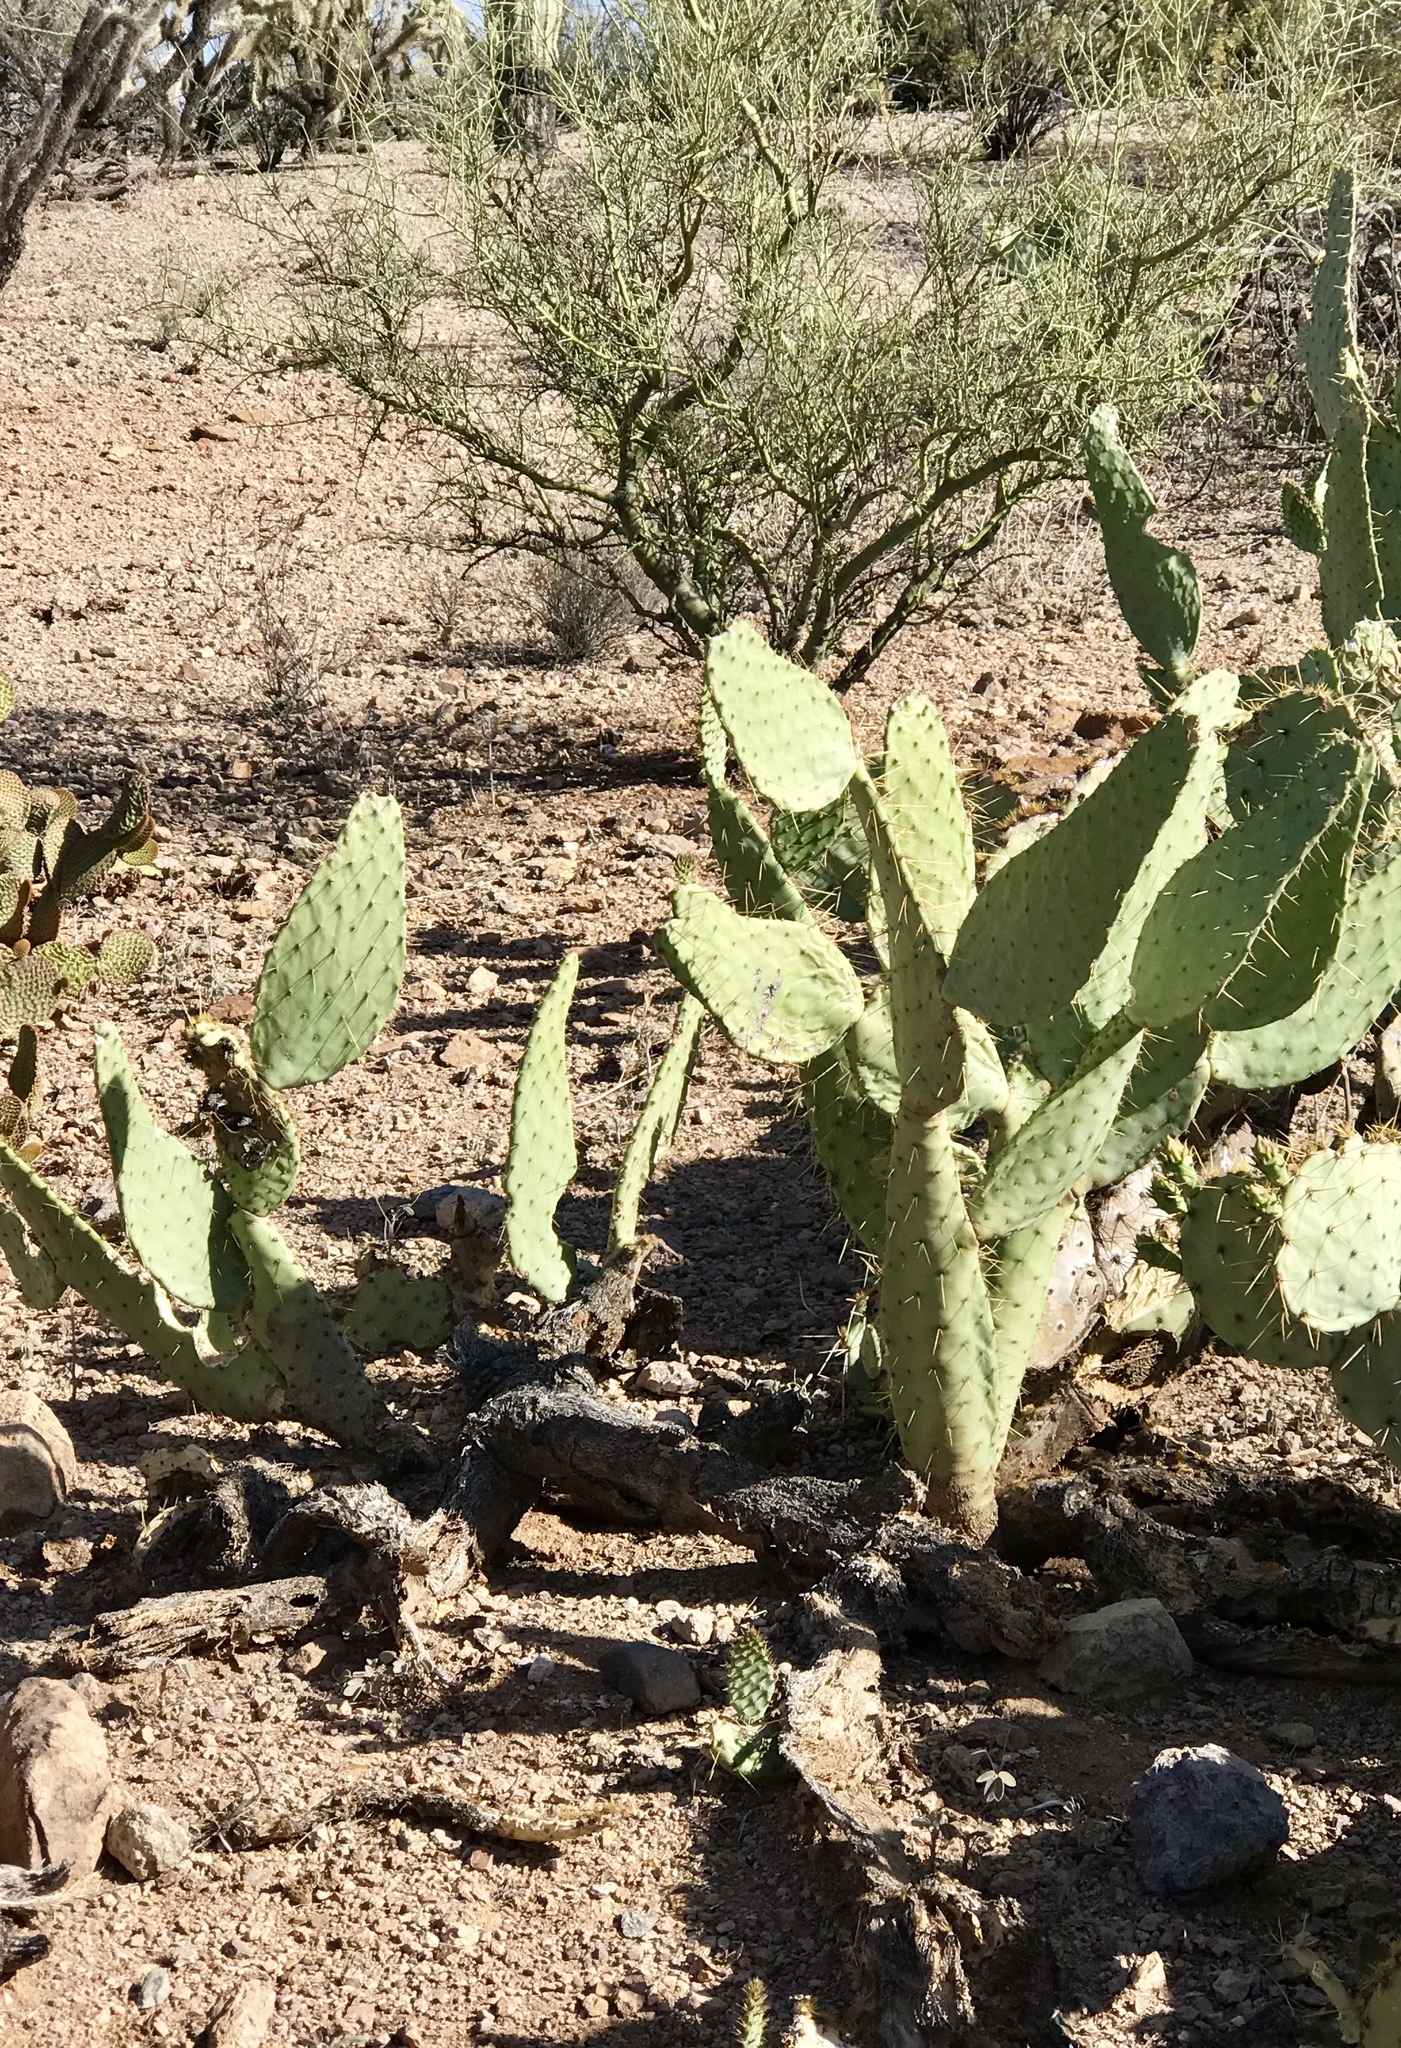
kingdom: Plantae
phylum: Tracheophyta
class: Magnoliopsida
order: Caryophyllales
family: Cactaceae
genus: Opuntia
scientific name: Opuntia engelmannii
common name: Cactus-apple
